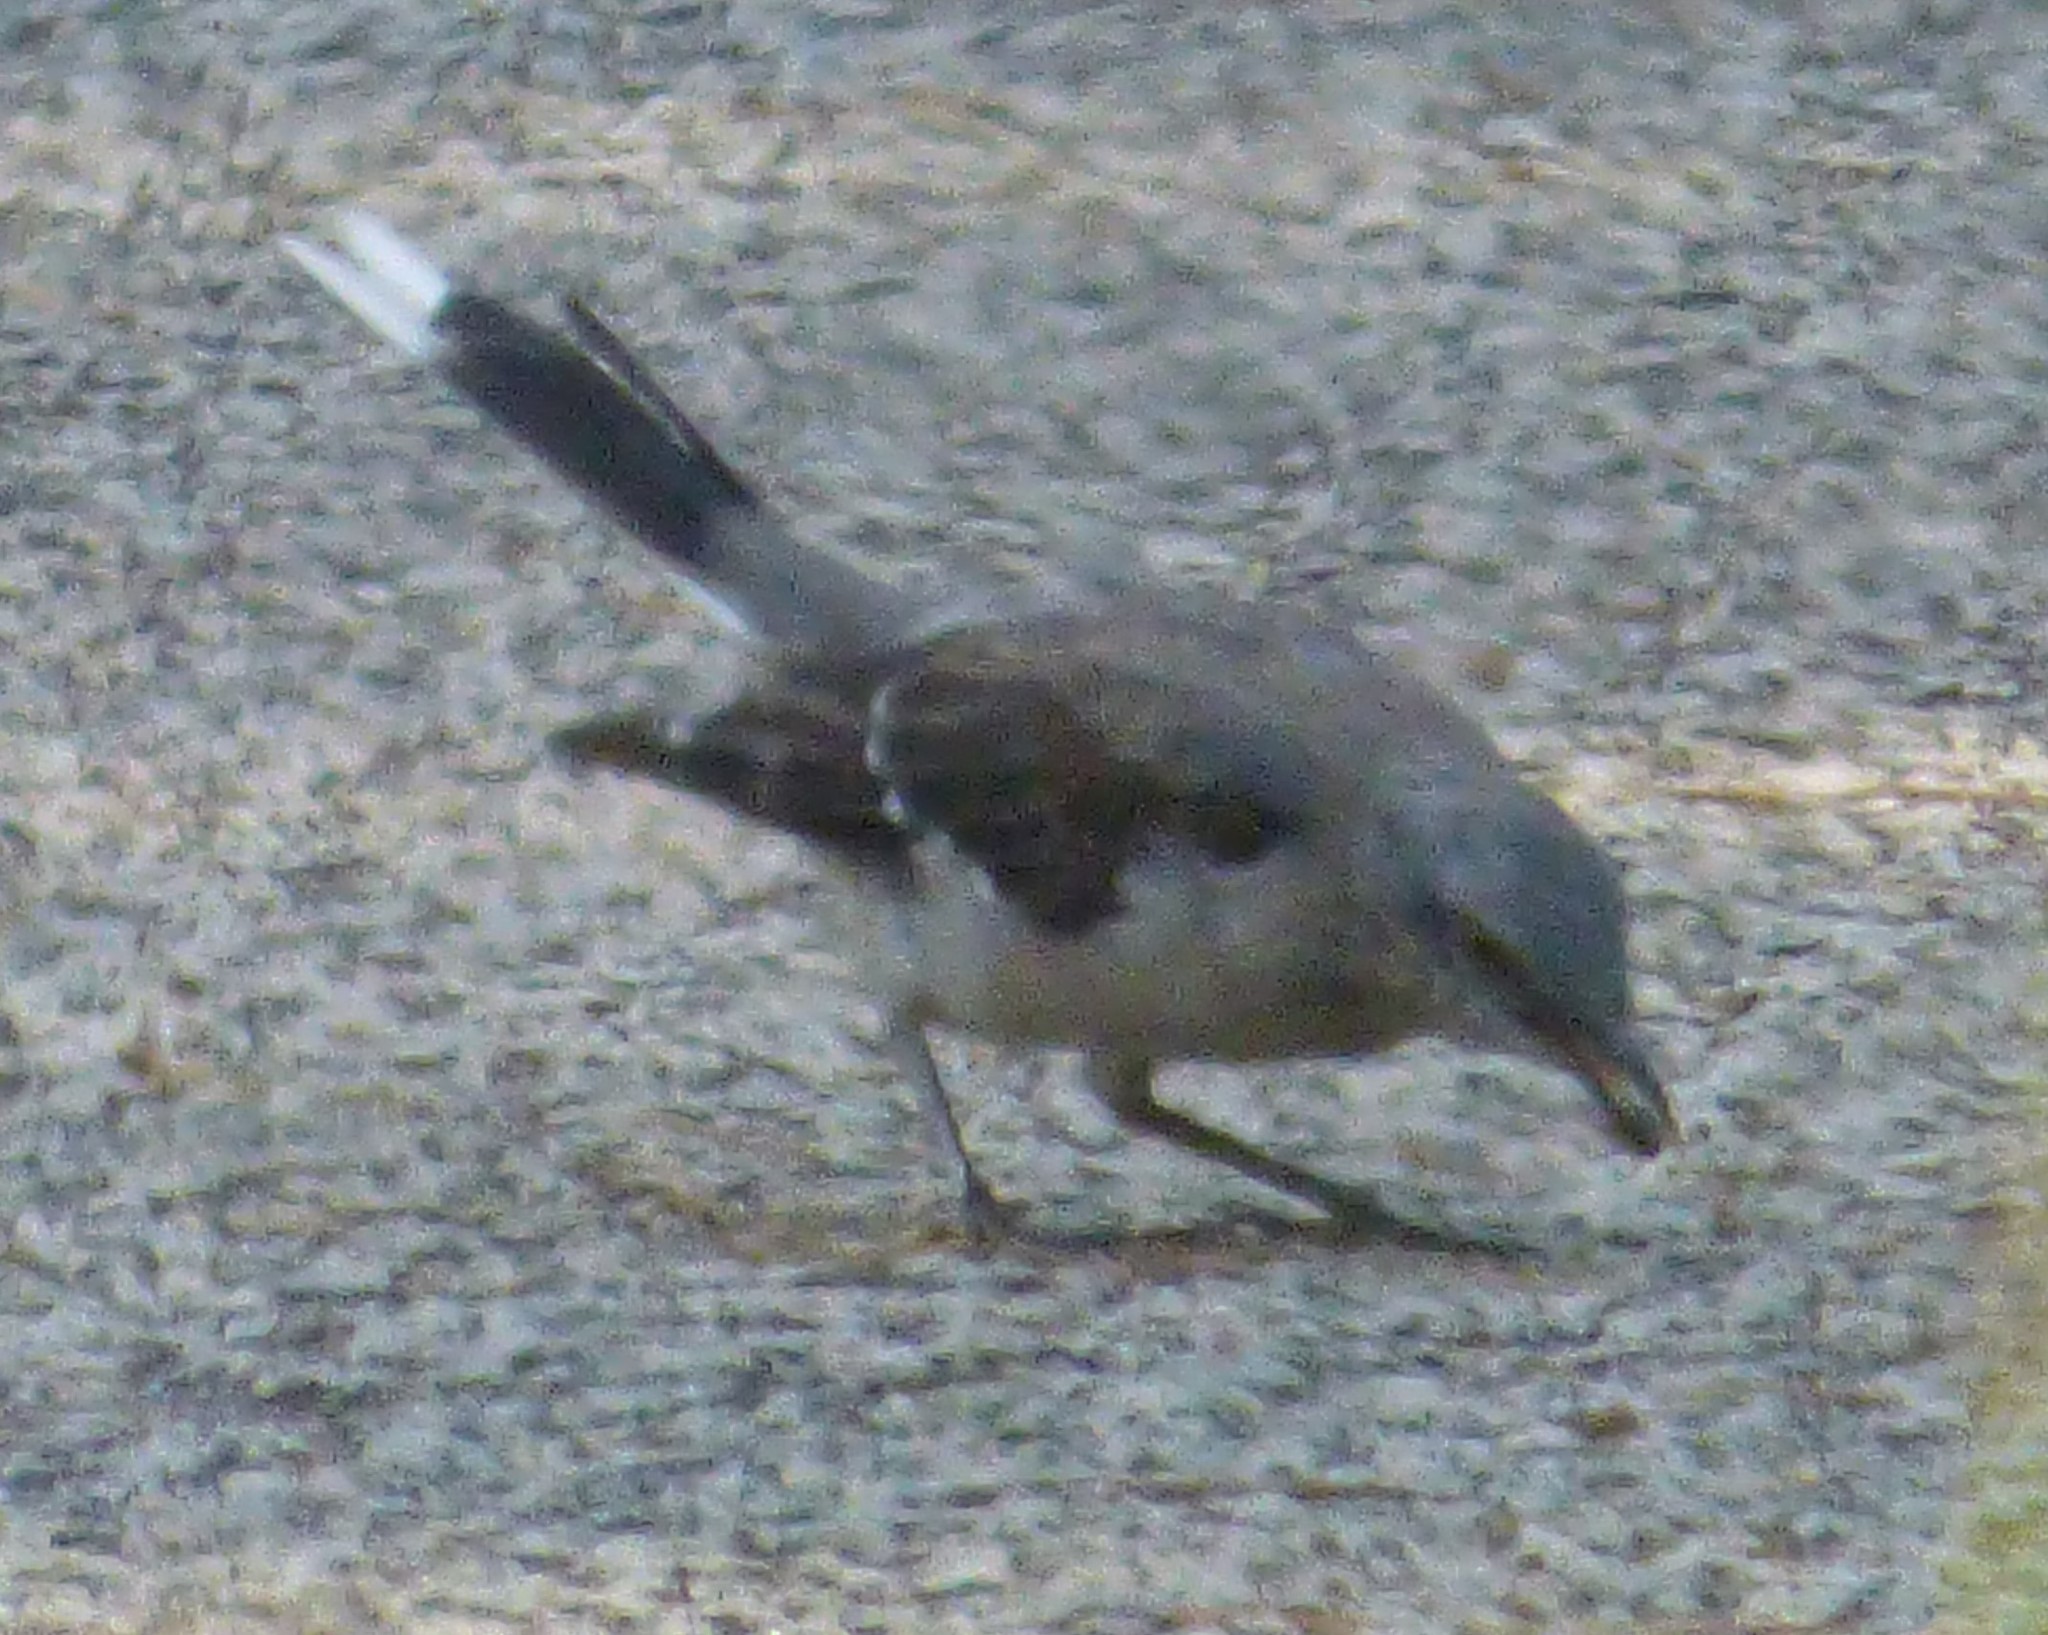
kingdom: Animalia
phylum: Chordata
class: Aves
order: Passeriformes
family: Mimidae
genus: Mimus
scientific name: Mimus polyglottos
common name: Northern mockingbird
